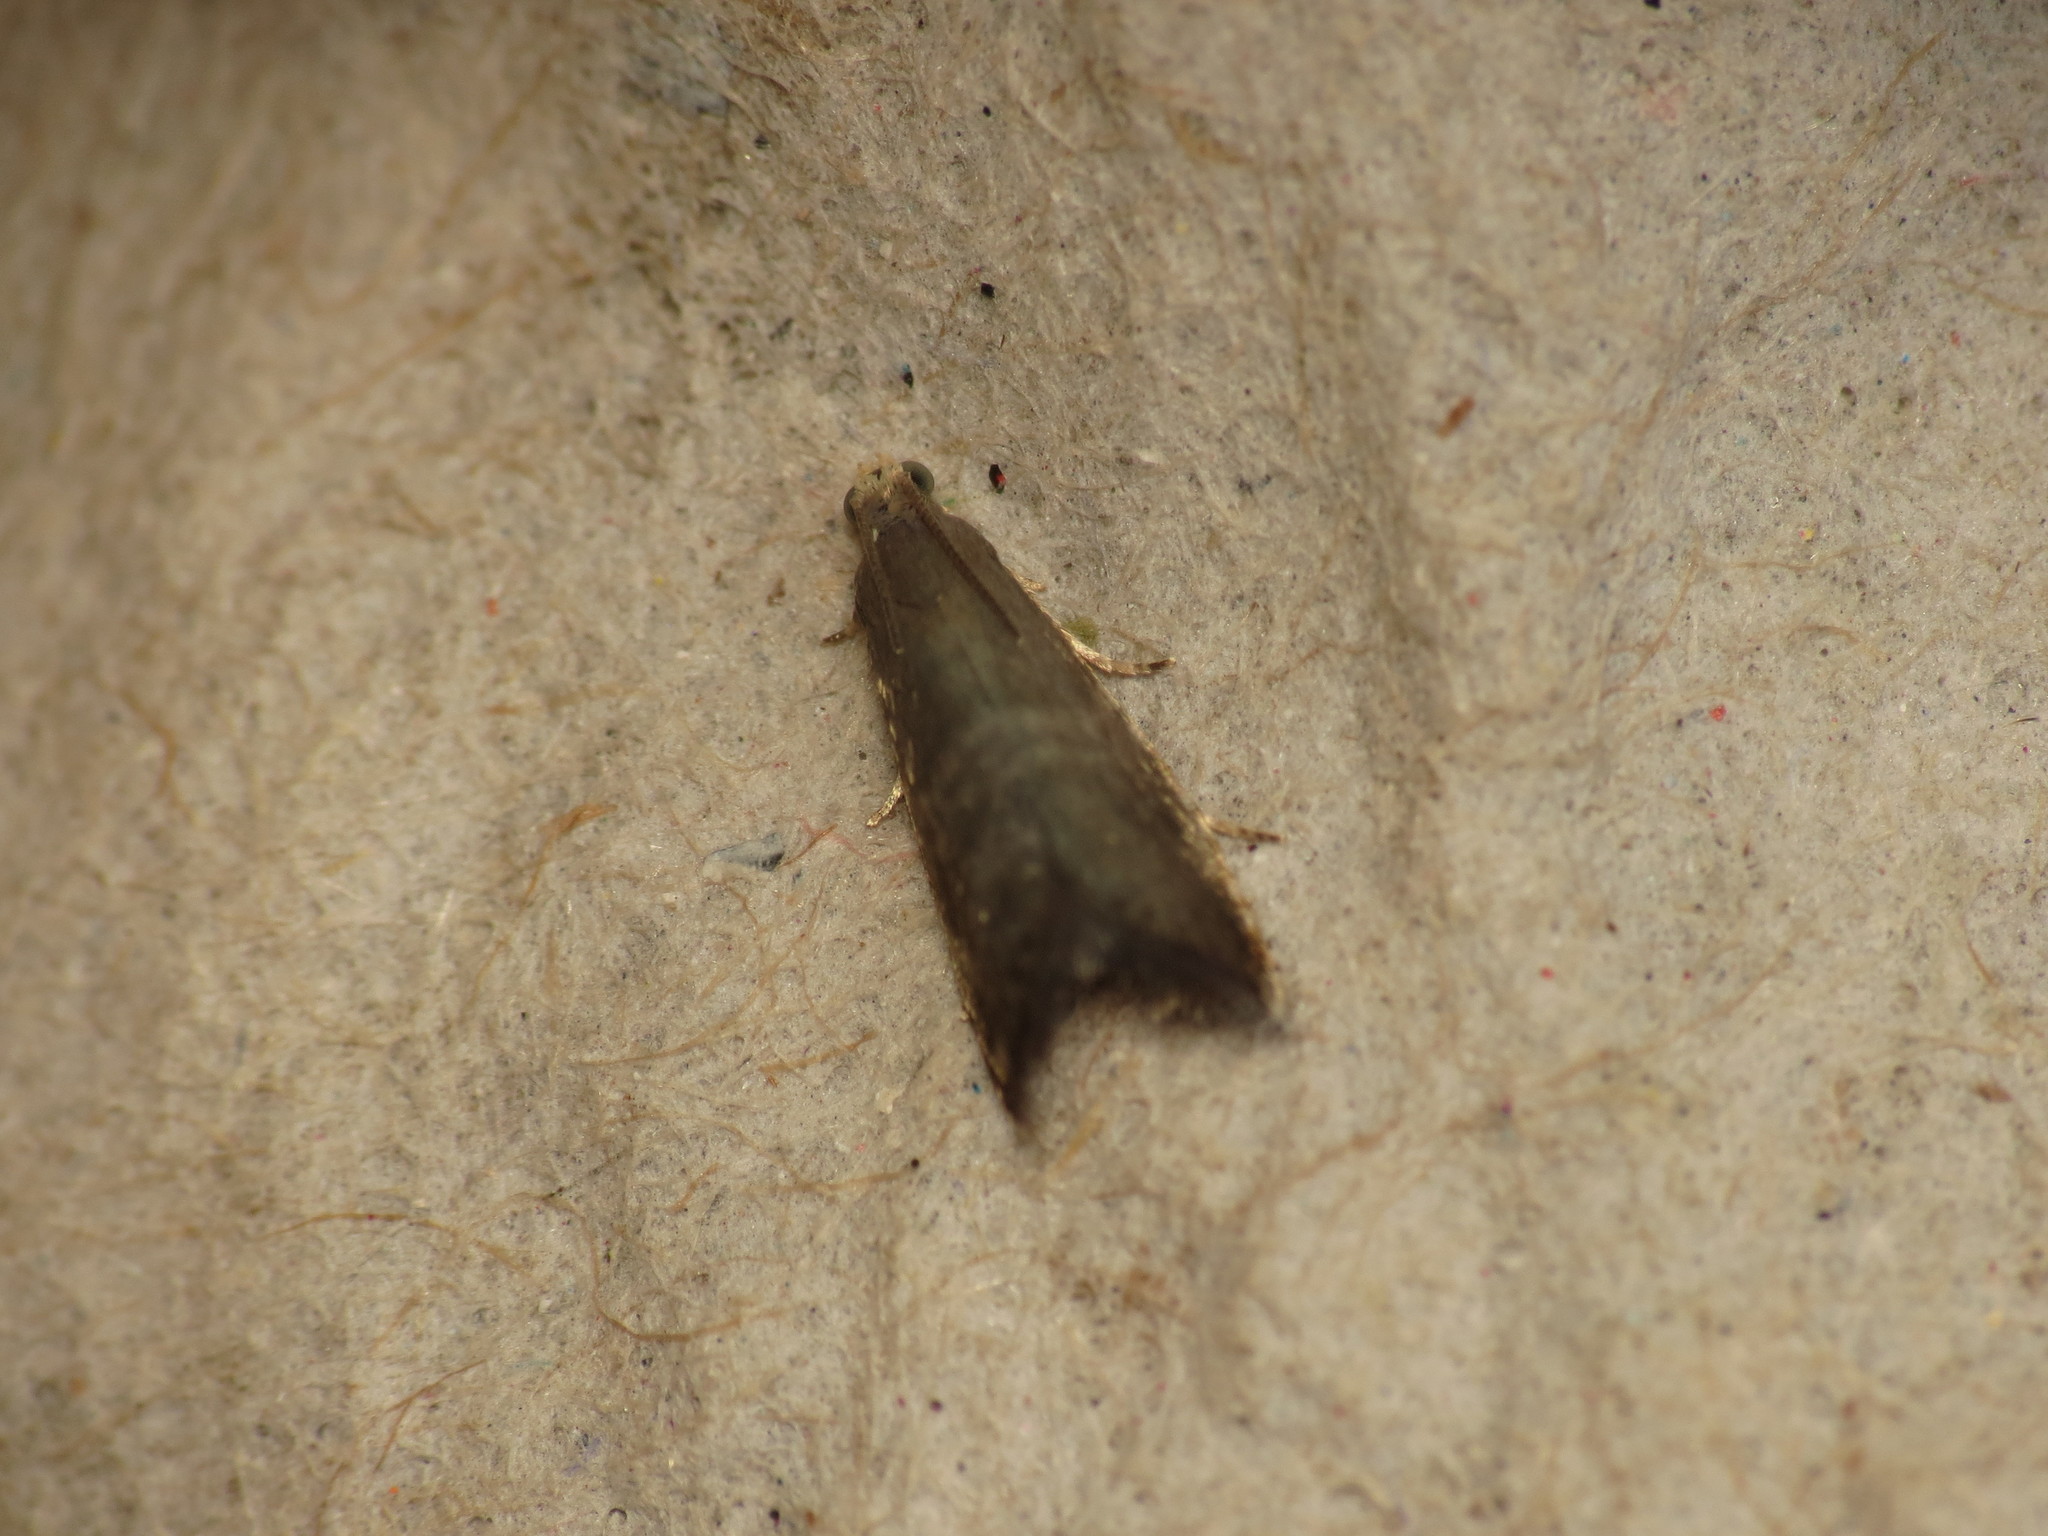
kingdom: Animalia
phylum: Arthropoda
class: Insecta
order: Lepidoptera
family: Tortricidae
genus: Strophedra
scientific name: Strophedra weirana
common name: Little beech piercer
